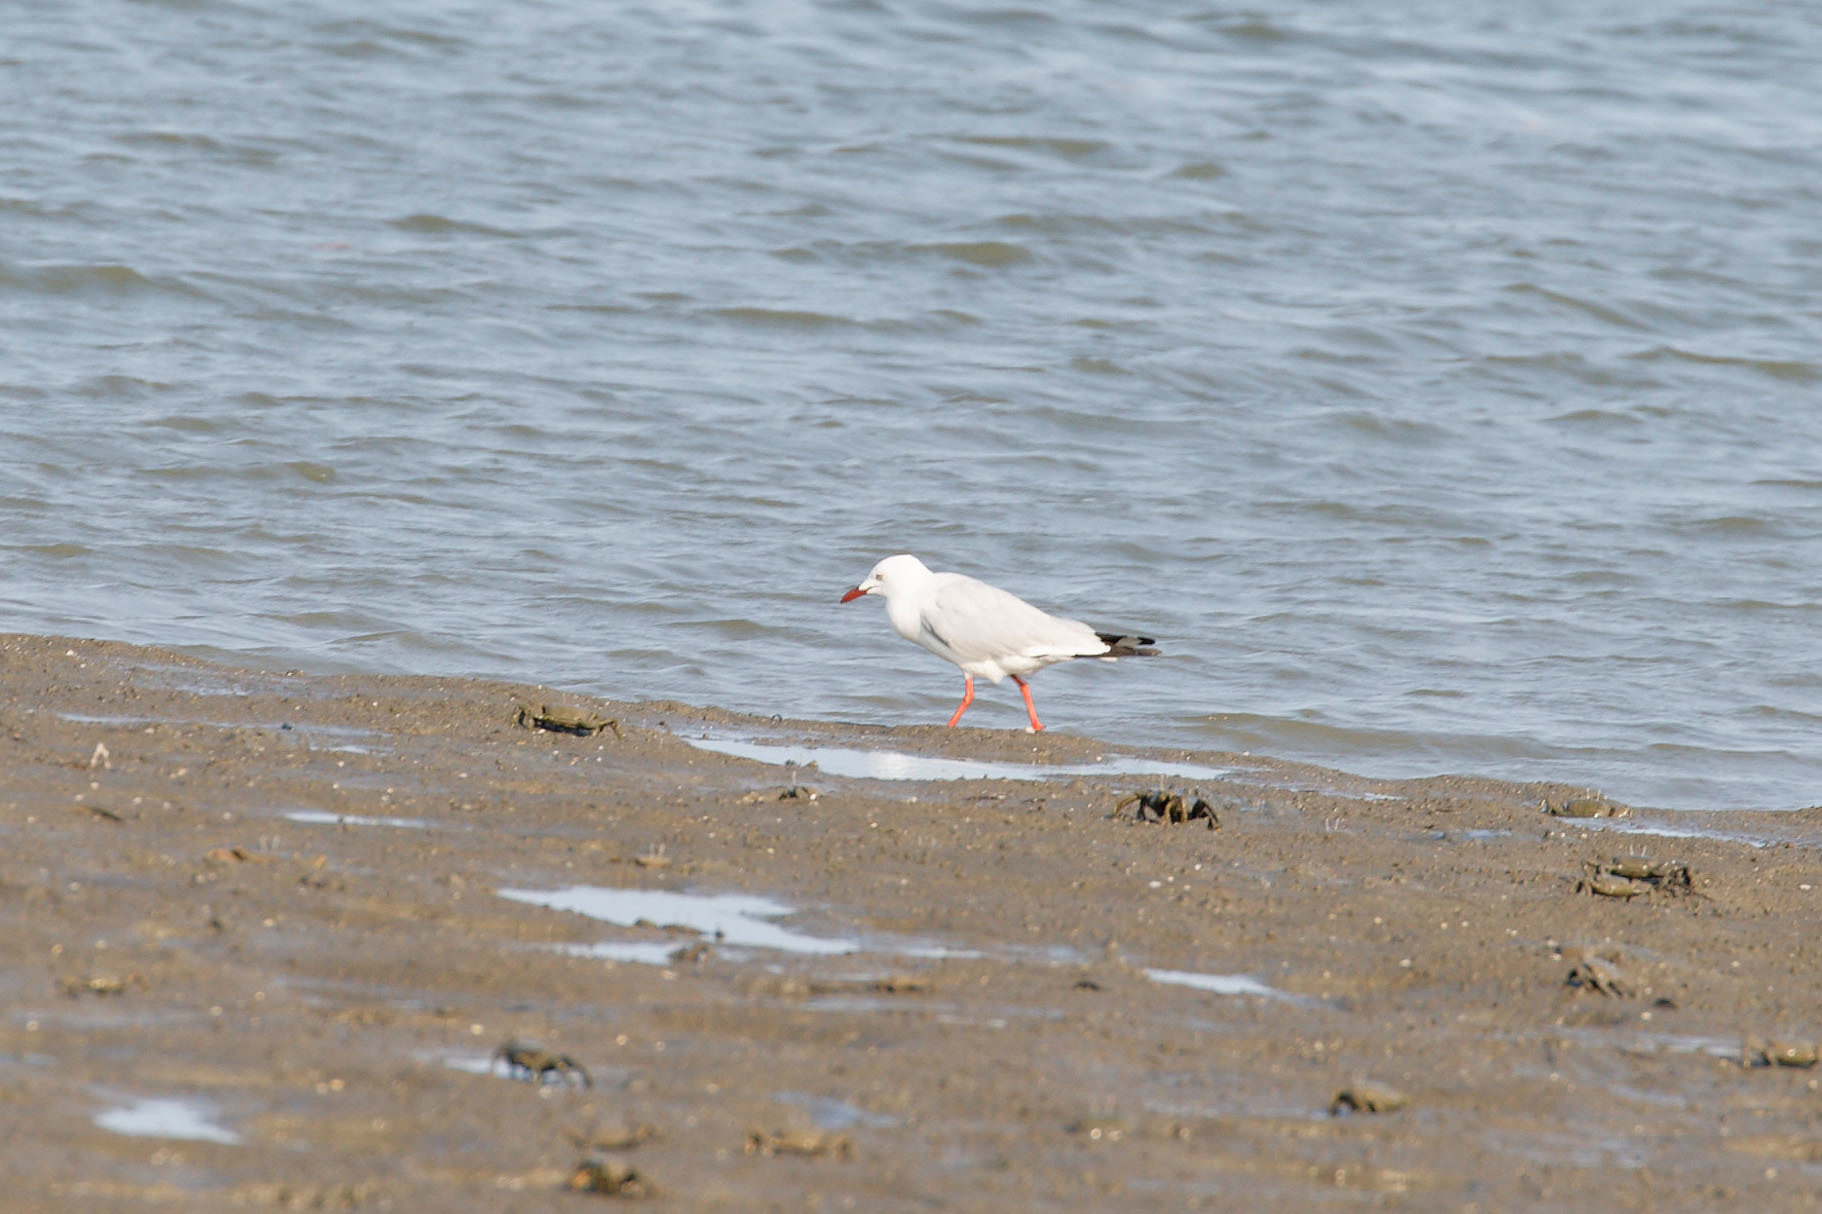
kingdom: Animalia
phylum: Chordata
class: Aves
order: Charadriiformes
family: Laridae
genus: Chroicocephalus
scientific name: Chroicocephalus novaehollandiae
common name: Silver gull
